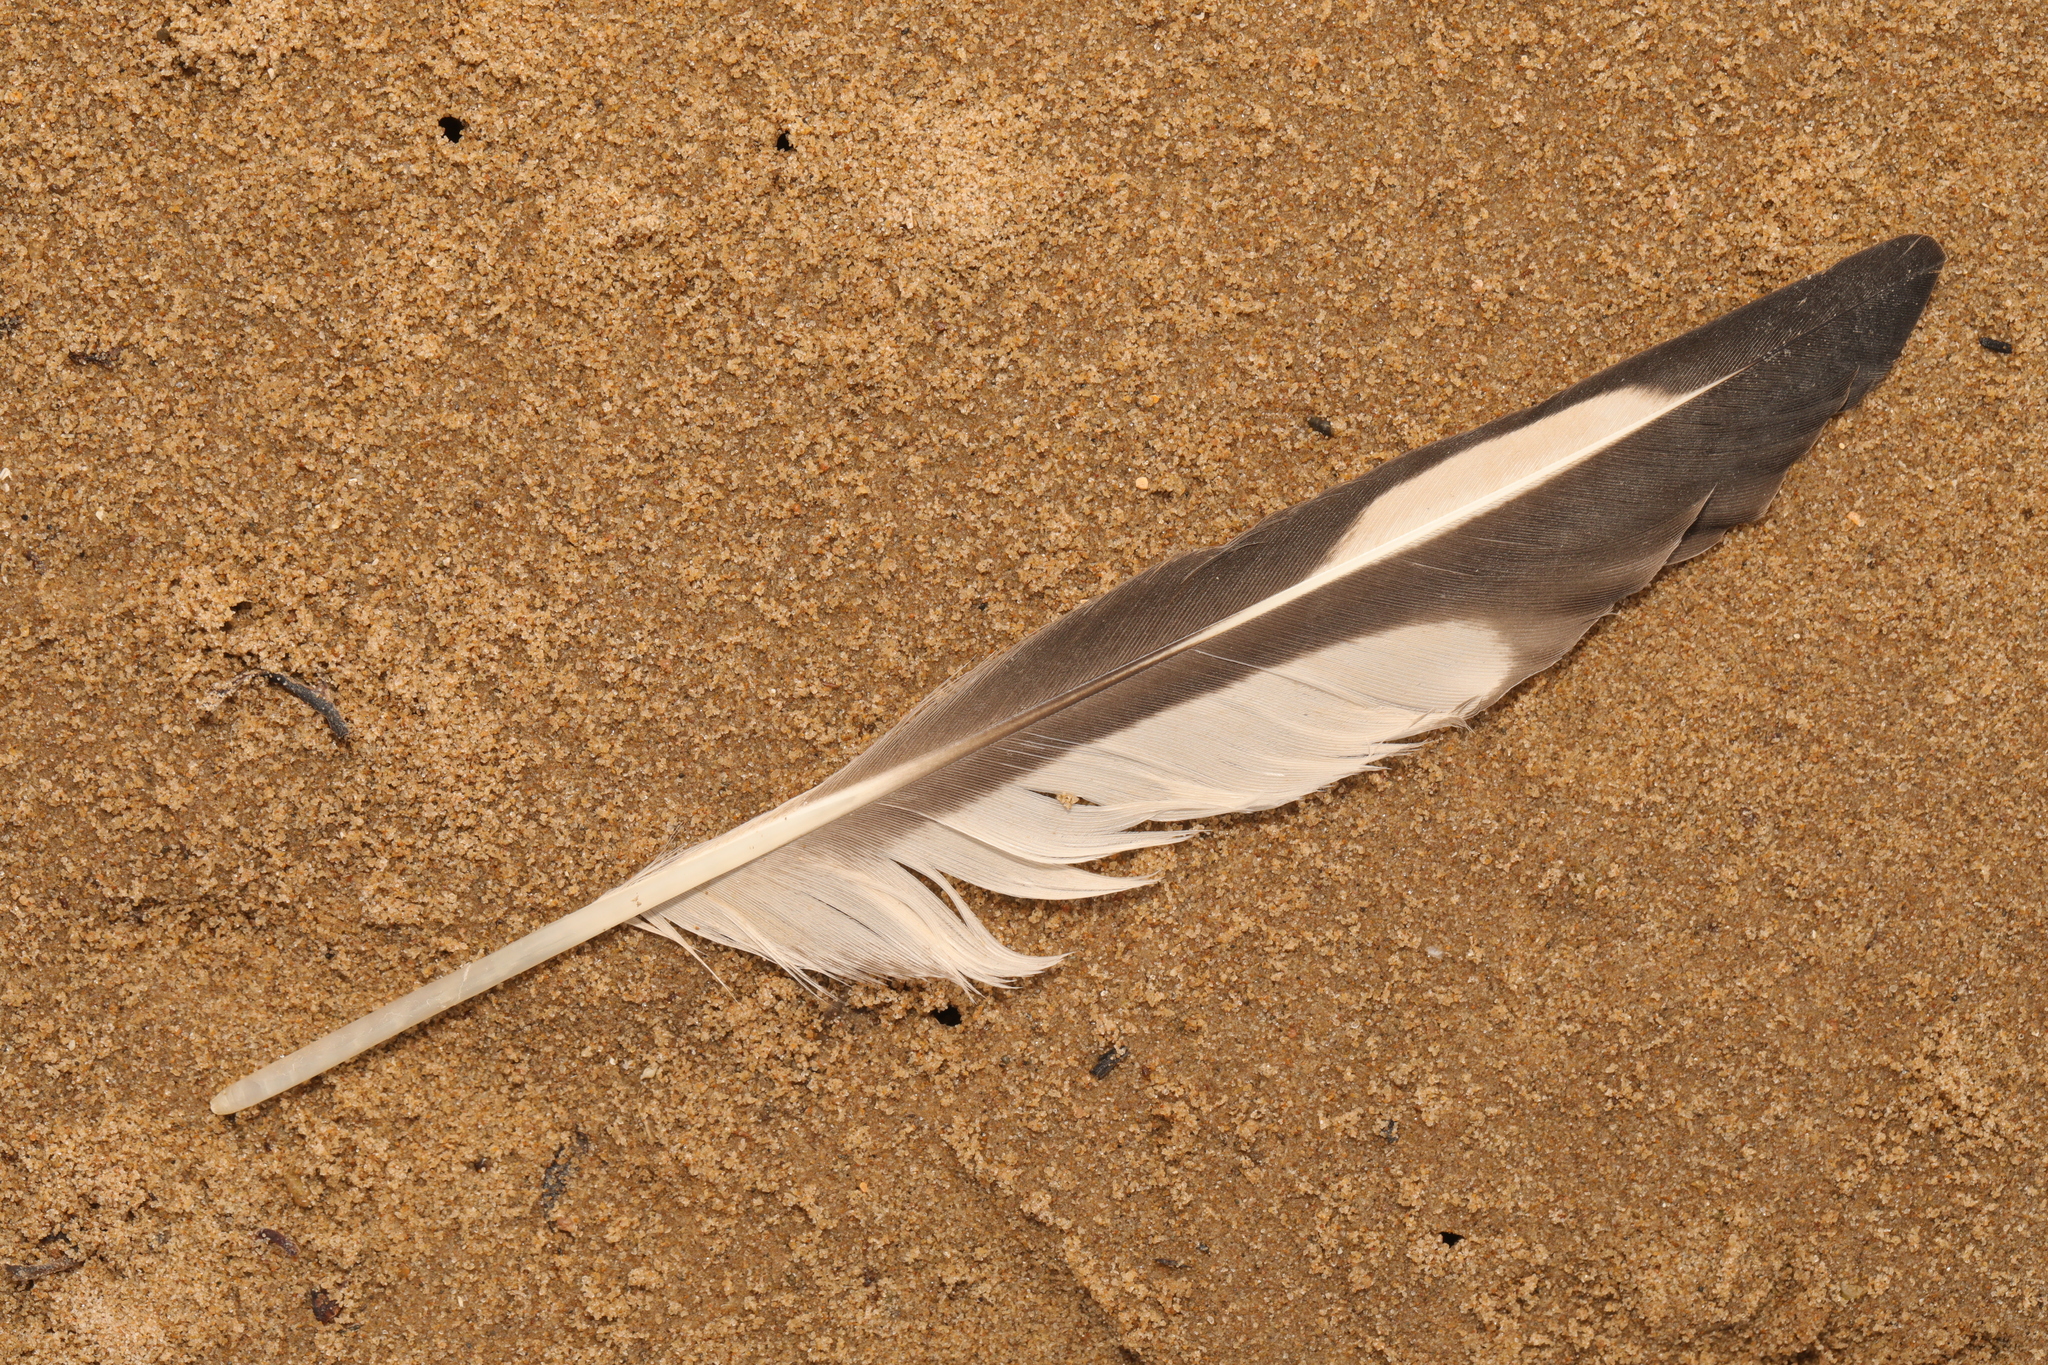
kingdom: Animalia
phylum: Chordata
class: Aves
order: Charadriiformes
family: Haematopodidae
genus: Haematopus
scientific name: Haematopus ostralegus
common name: Eurasian oystercatcher
